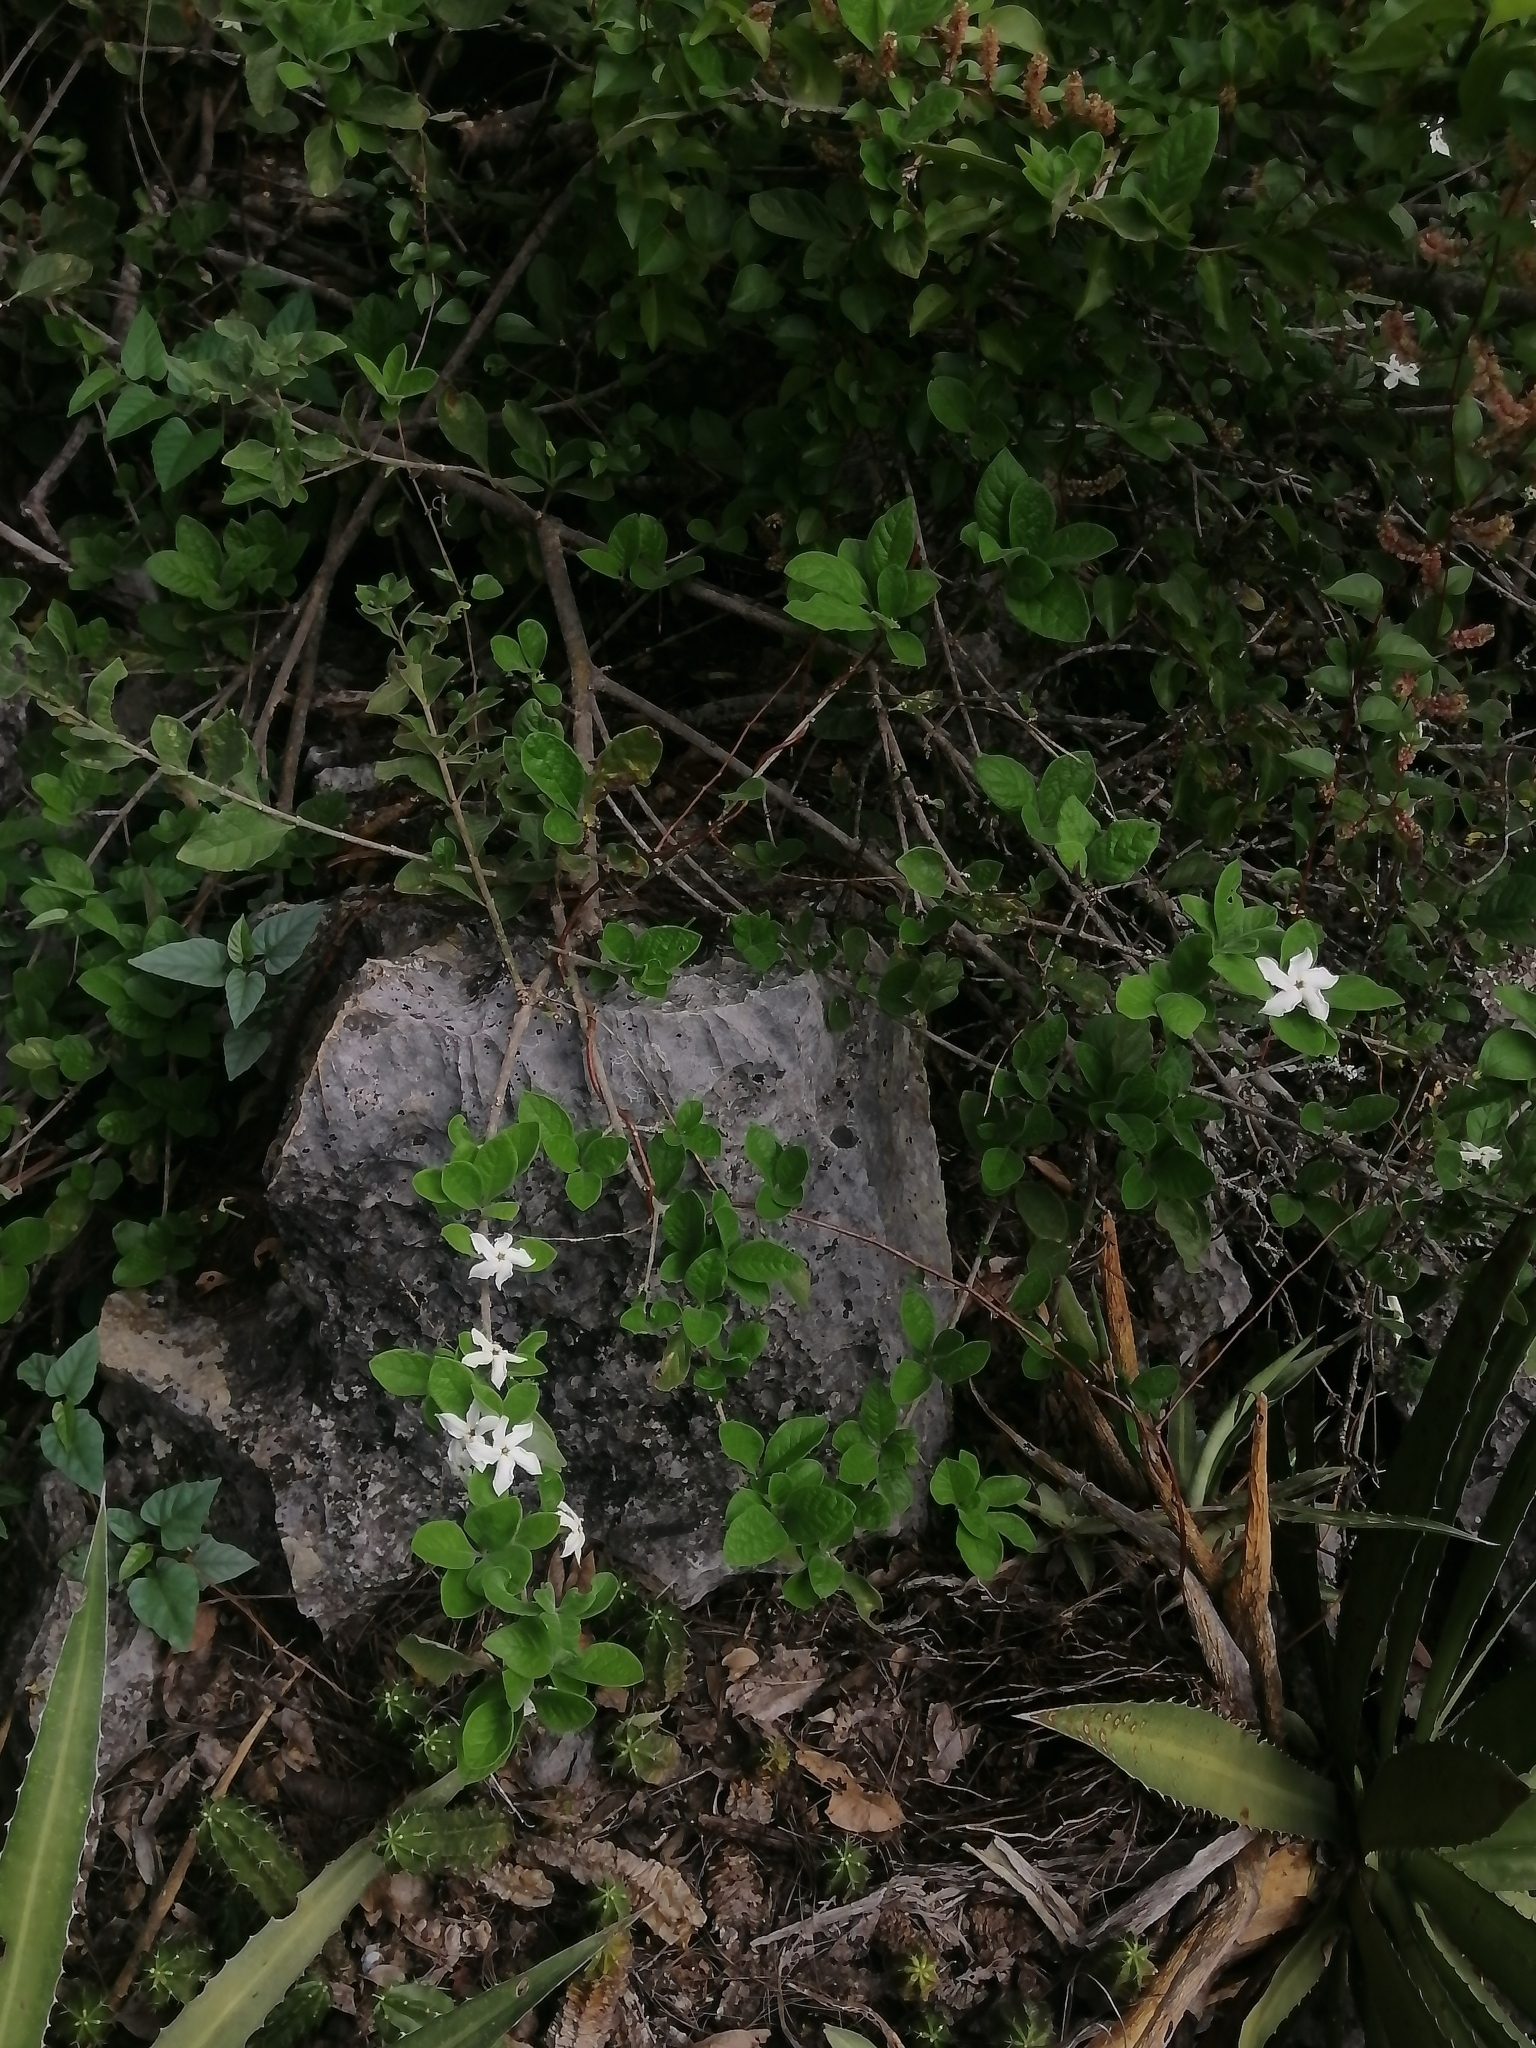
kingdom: Plantae
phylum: Tracheophyta
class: Magnoliopsida
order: Gentianales
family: Rubiaceae
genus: Randia
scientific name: Randia pringlei
